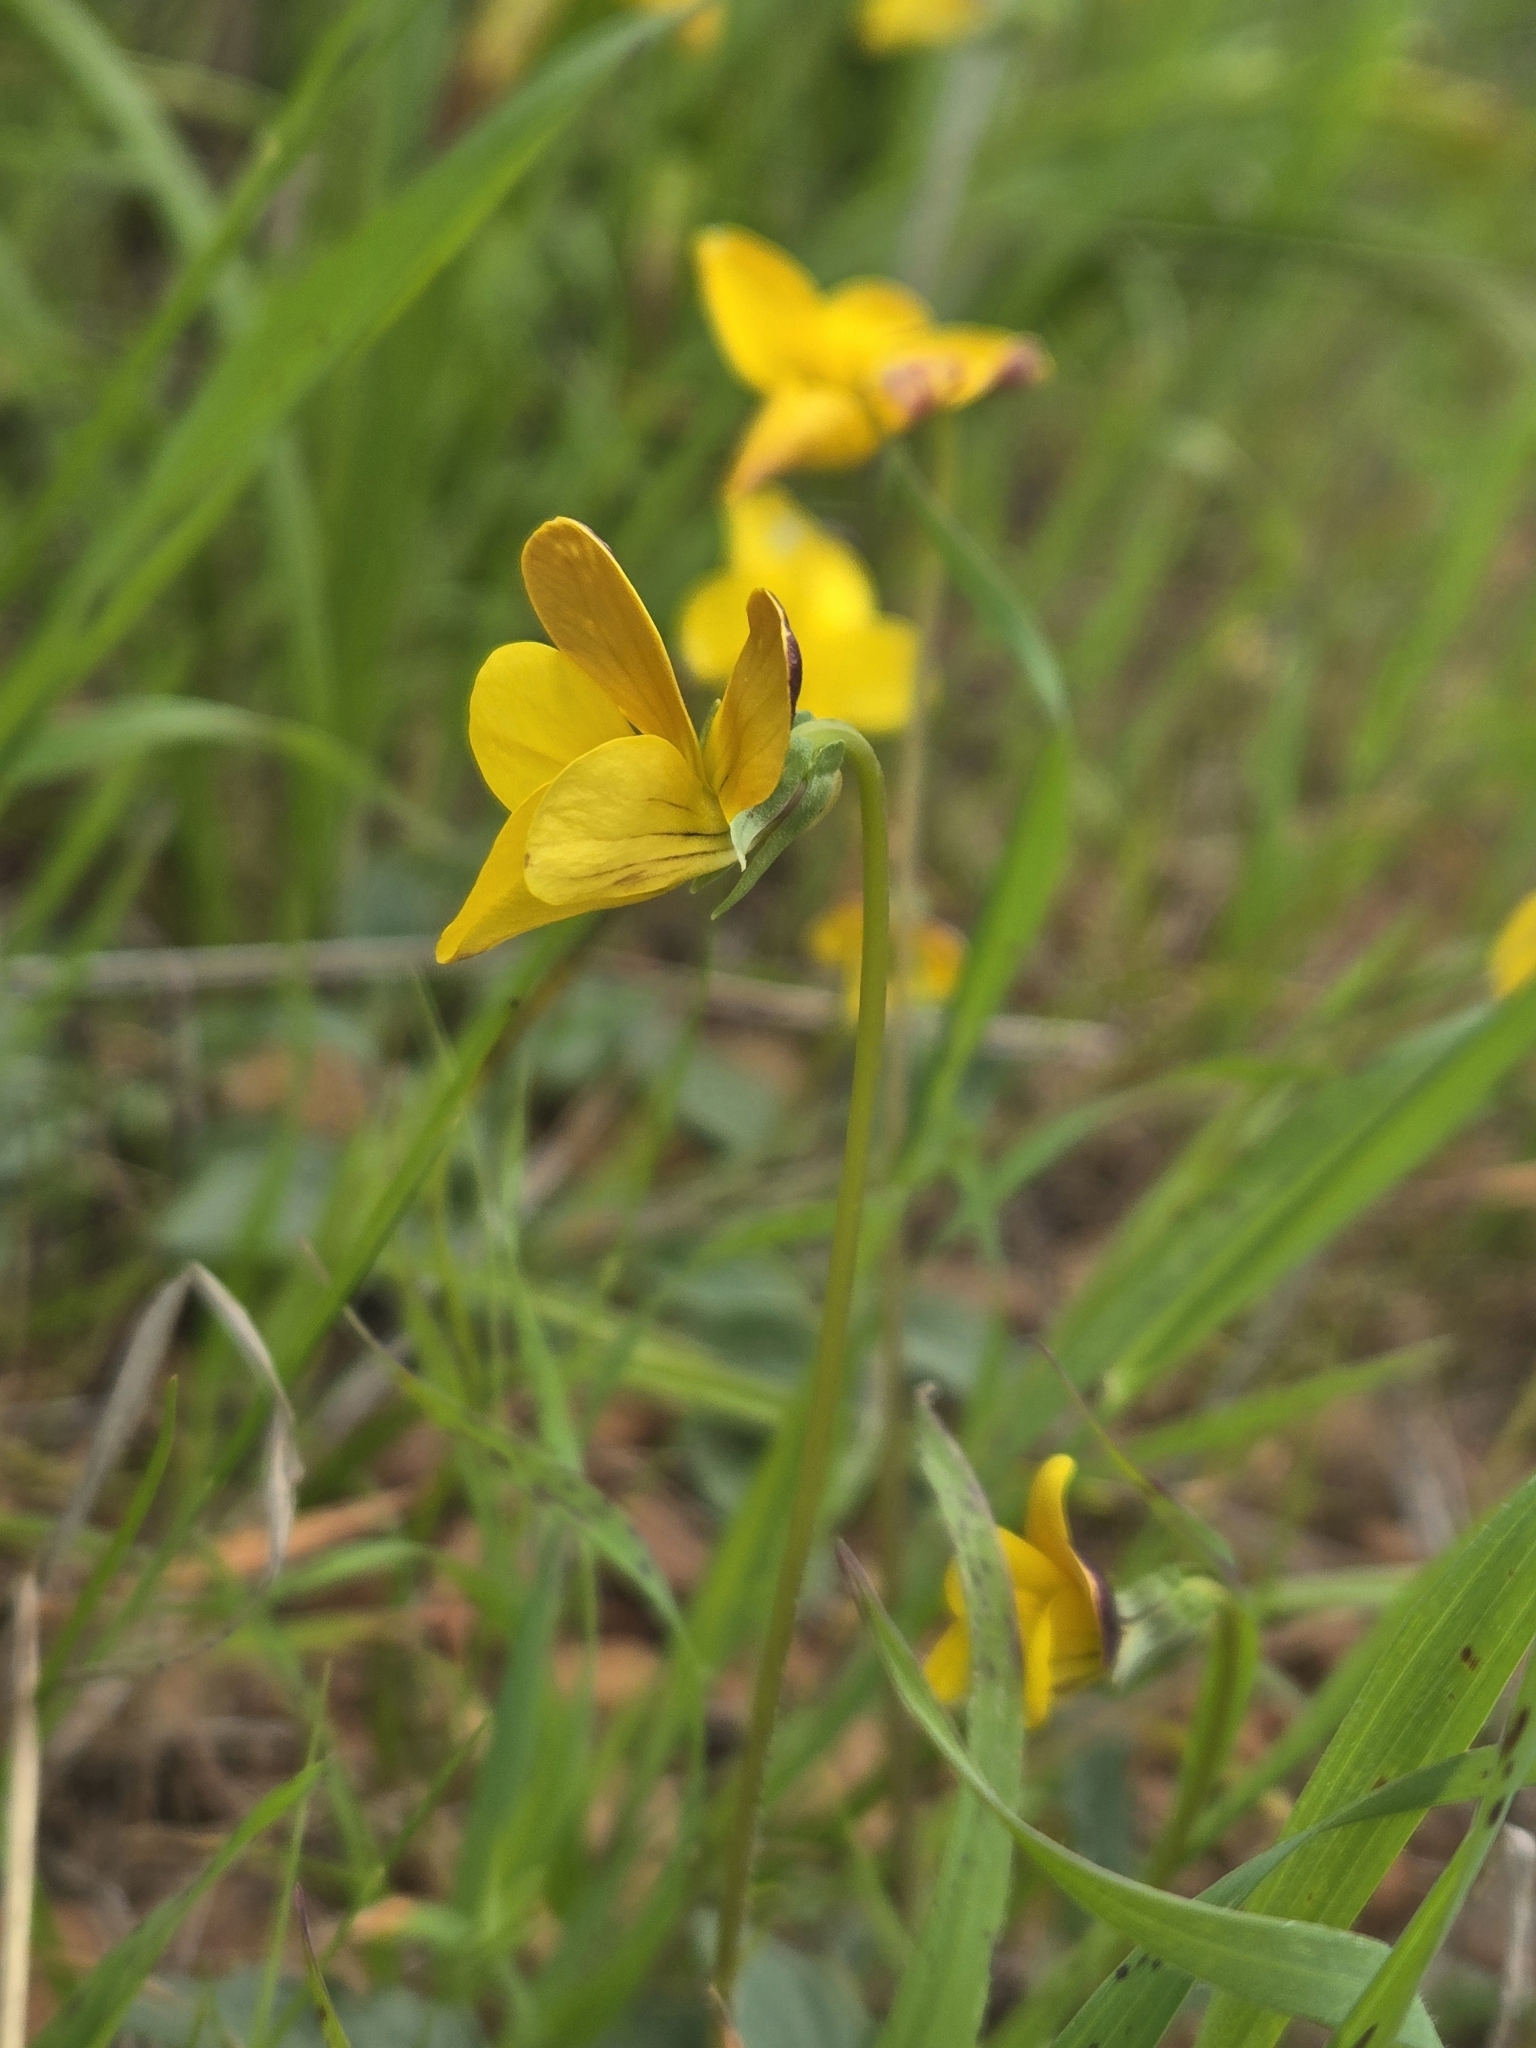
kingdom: Plantae
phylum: Tracheophyta
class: Magnoliopsida
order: Malpighiales
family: Violaceae
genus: Viola
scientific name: Viola purpurea
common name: Pine violet
